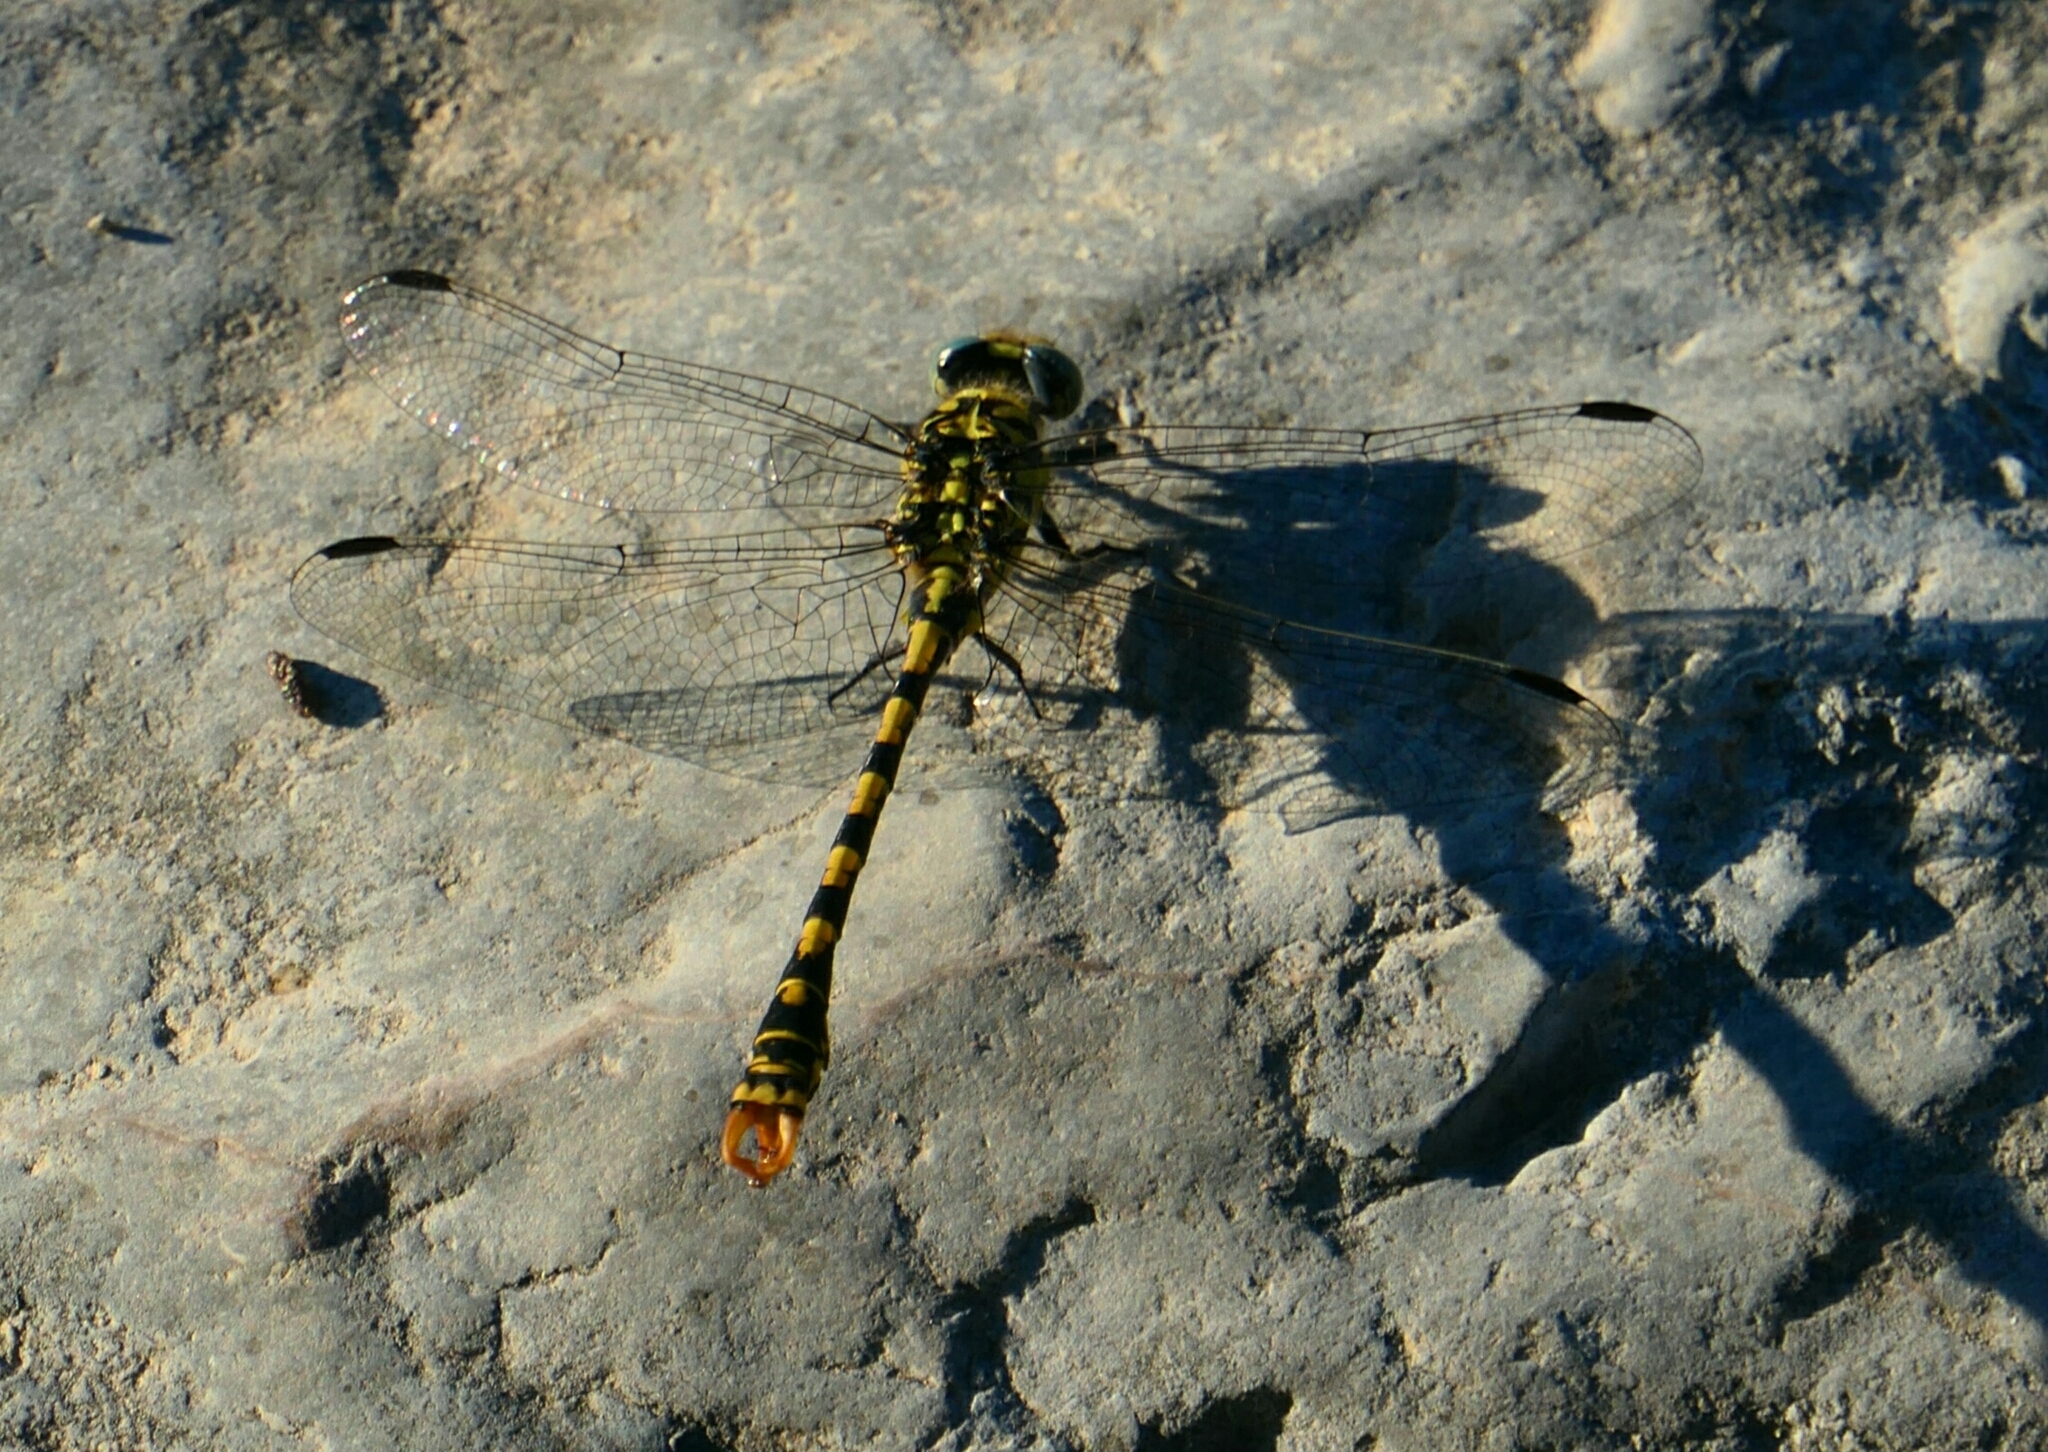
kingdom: Animalia
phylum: Arthropoda
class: Insecta
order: Odonata
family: Gomphidae
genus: Onychogomphus
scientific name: Onychogomphus forcipatus
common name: Small pincertail
